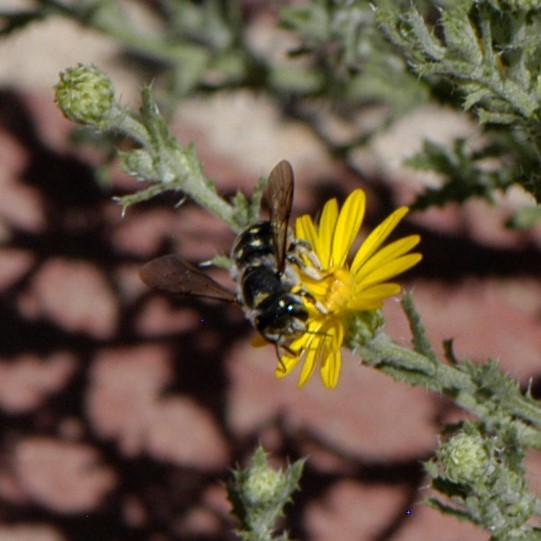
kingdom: Animalia
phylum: Arthropoda
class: Insecta
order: Hymenoptera
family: Megachilidae
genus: Anthidium
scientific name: Anthidium maculosum
